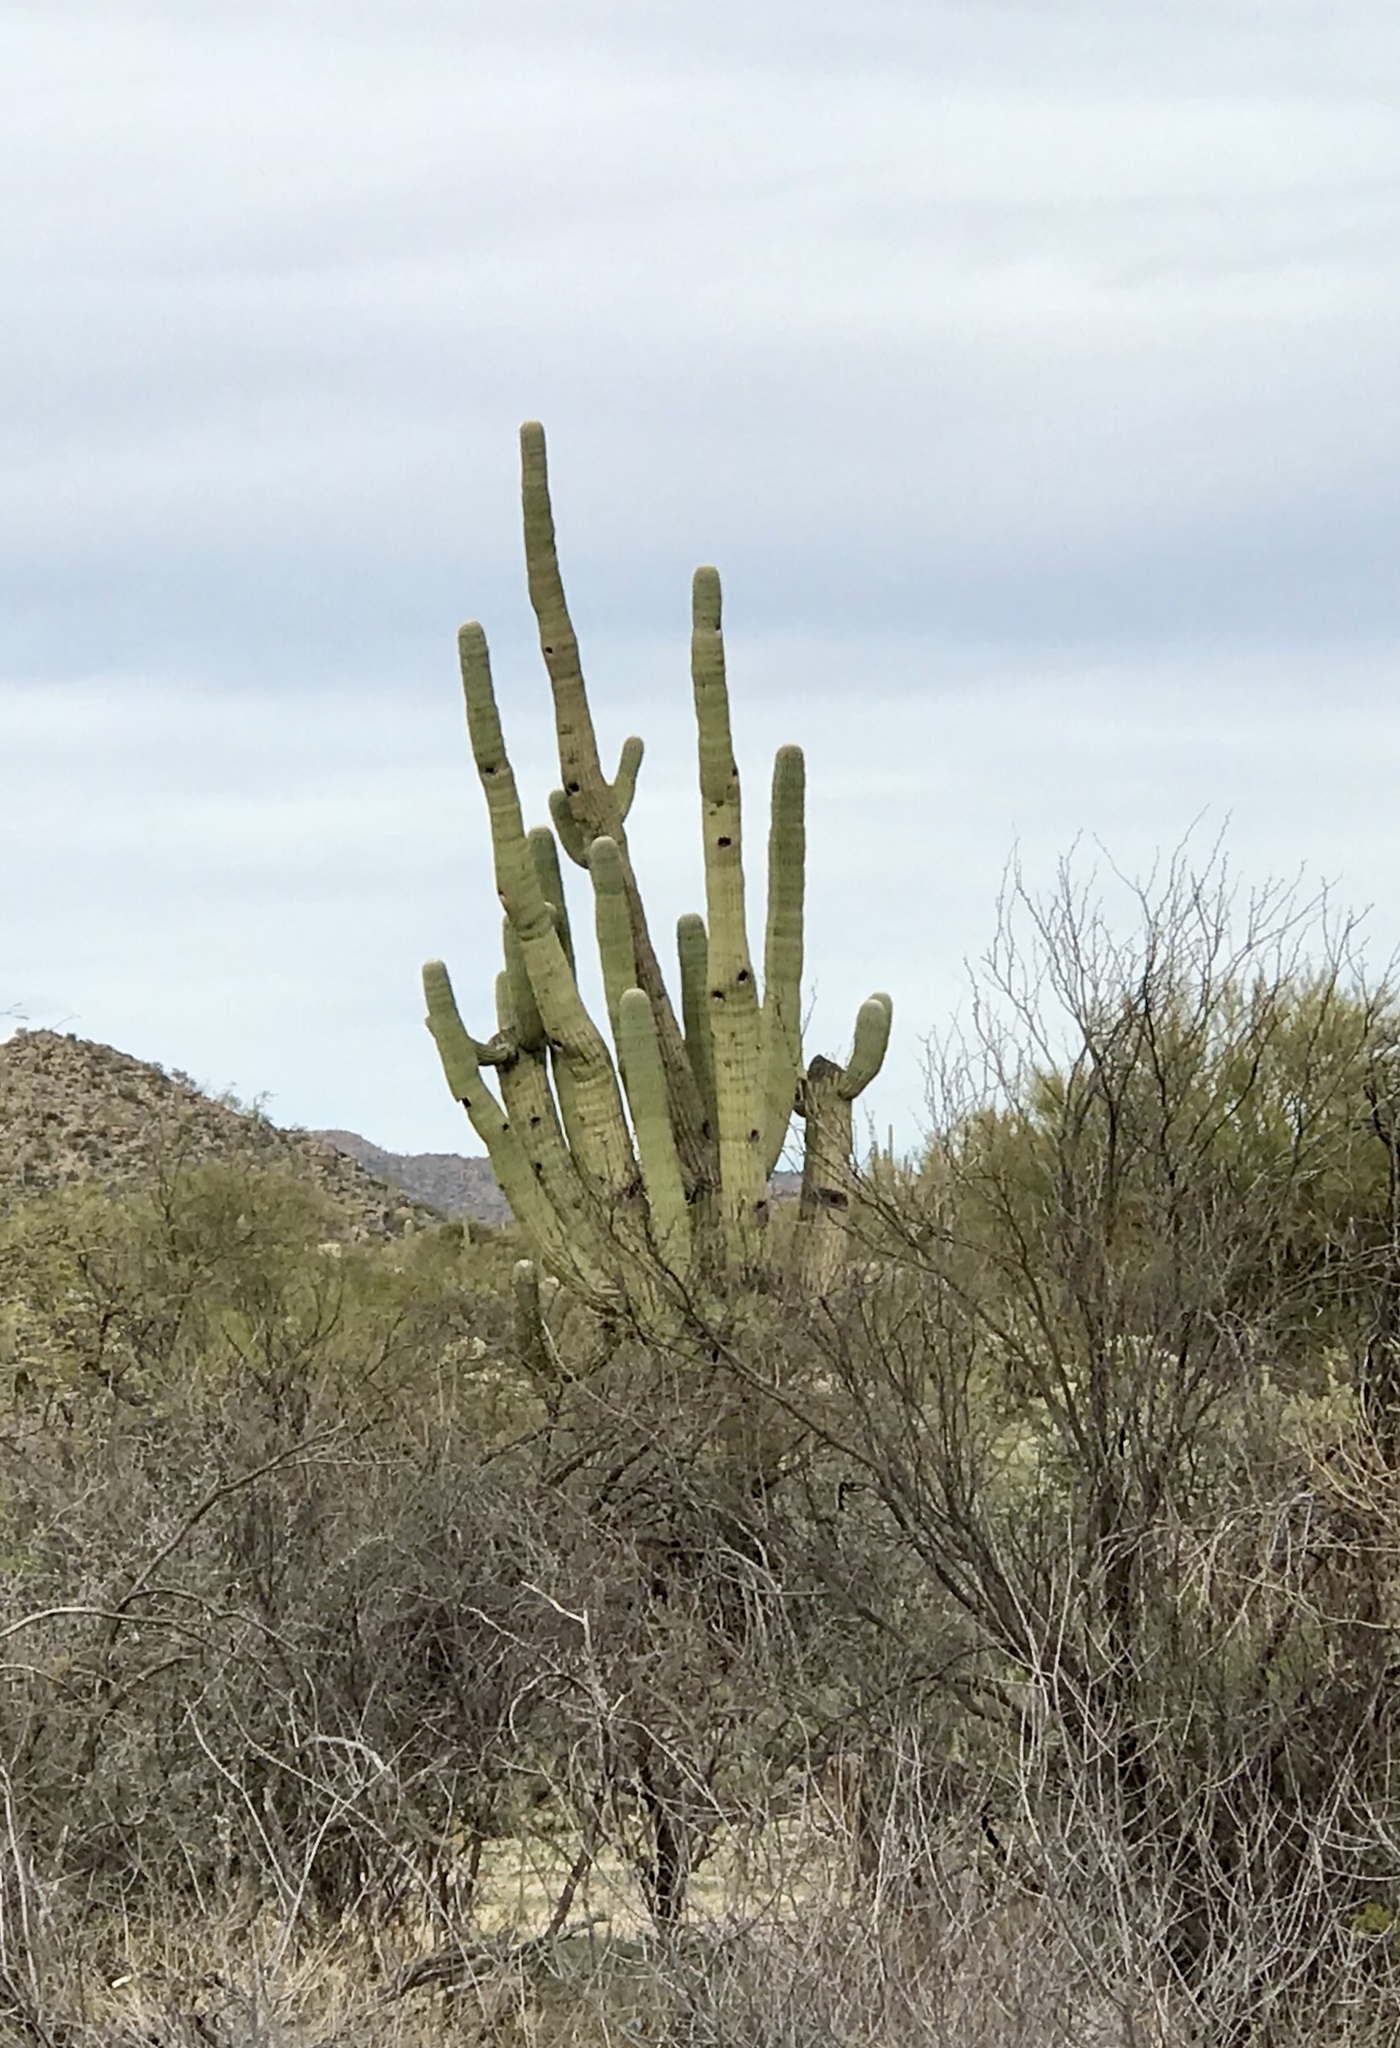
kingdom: Plantae
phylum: Tracheophyta
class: Magnoliopsida
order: Caryophyllales
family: Cactaceae
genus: Carnegiea
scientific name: Carnegiea gigantea
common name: Saguaro
